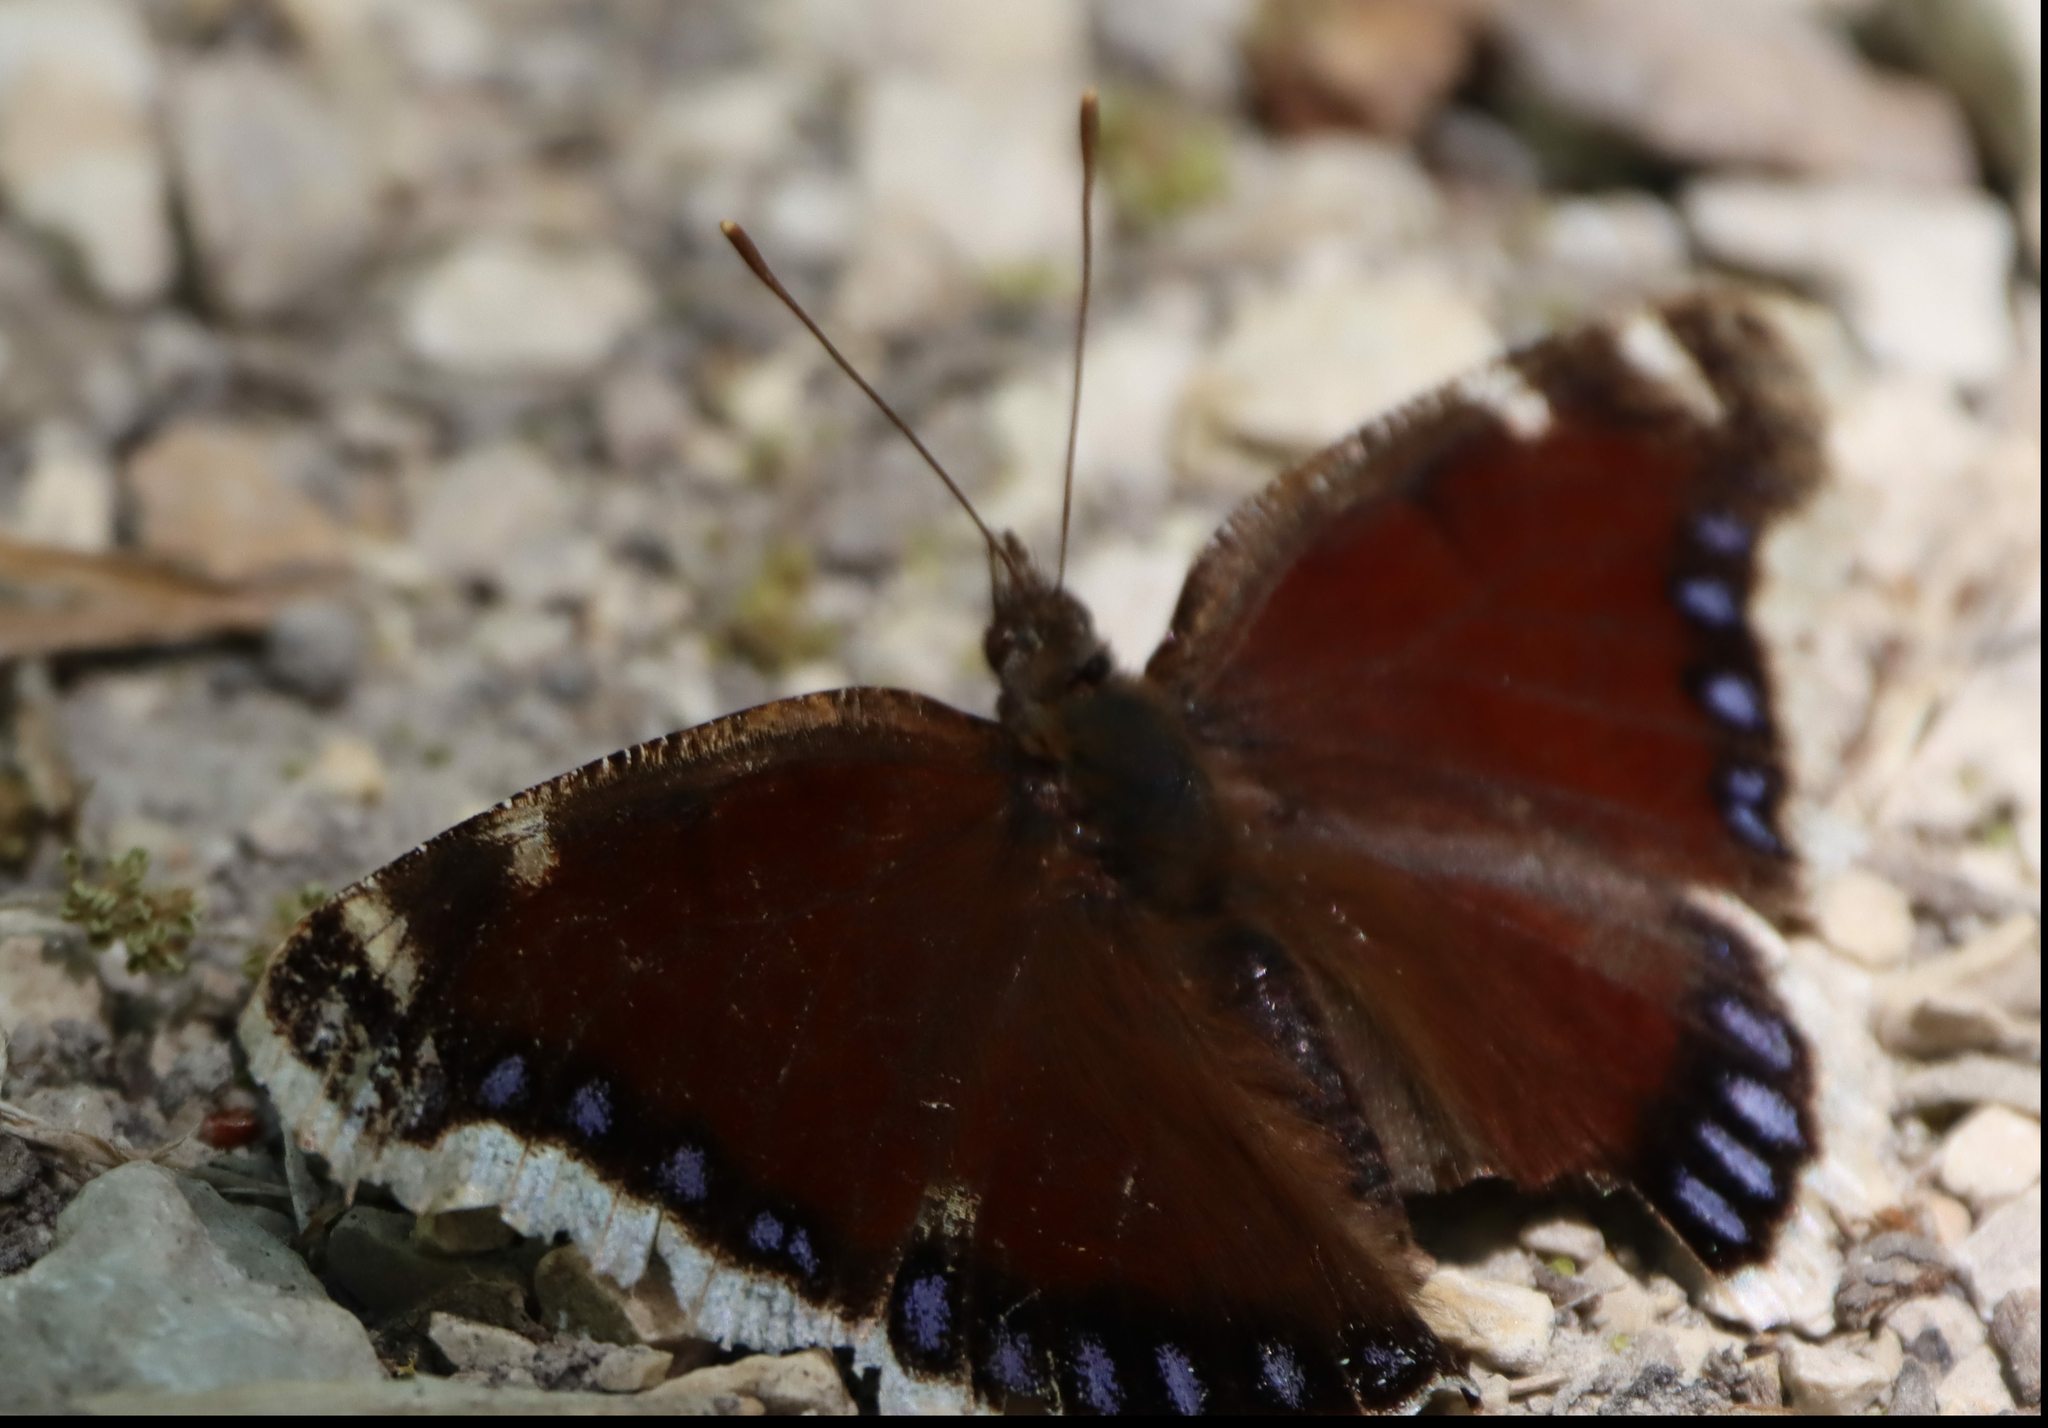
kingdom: Animalia
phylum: Arthropoda
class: Insecta
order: Lepidoptera
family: Nymphalidae
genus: Nymphalis
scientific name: Nymphalis antiopa
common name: Camberwell beauty
